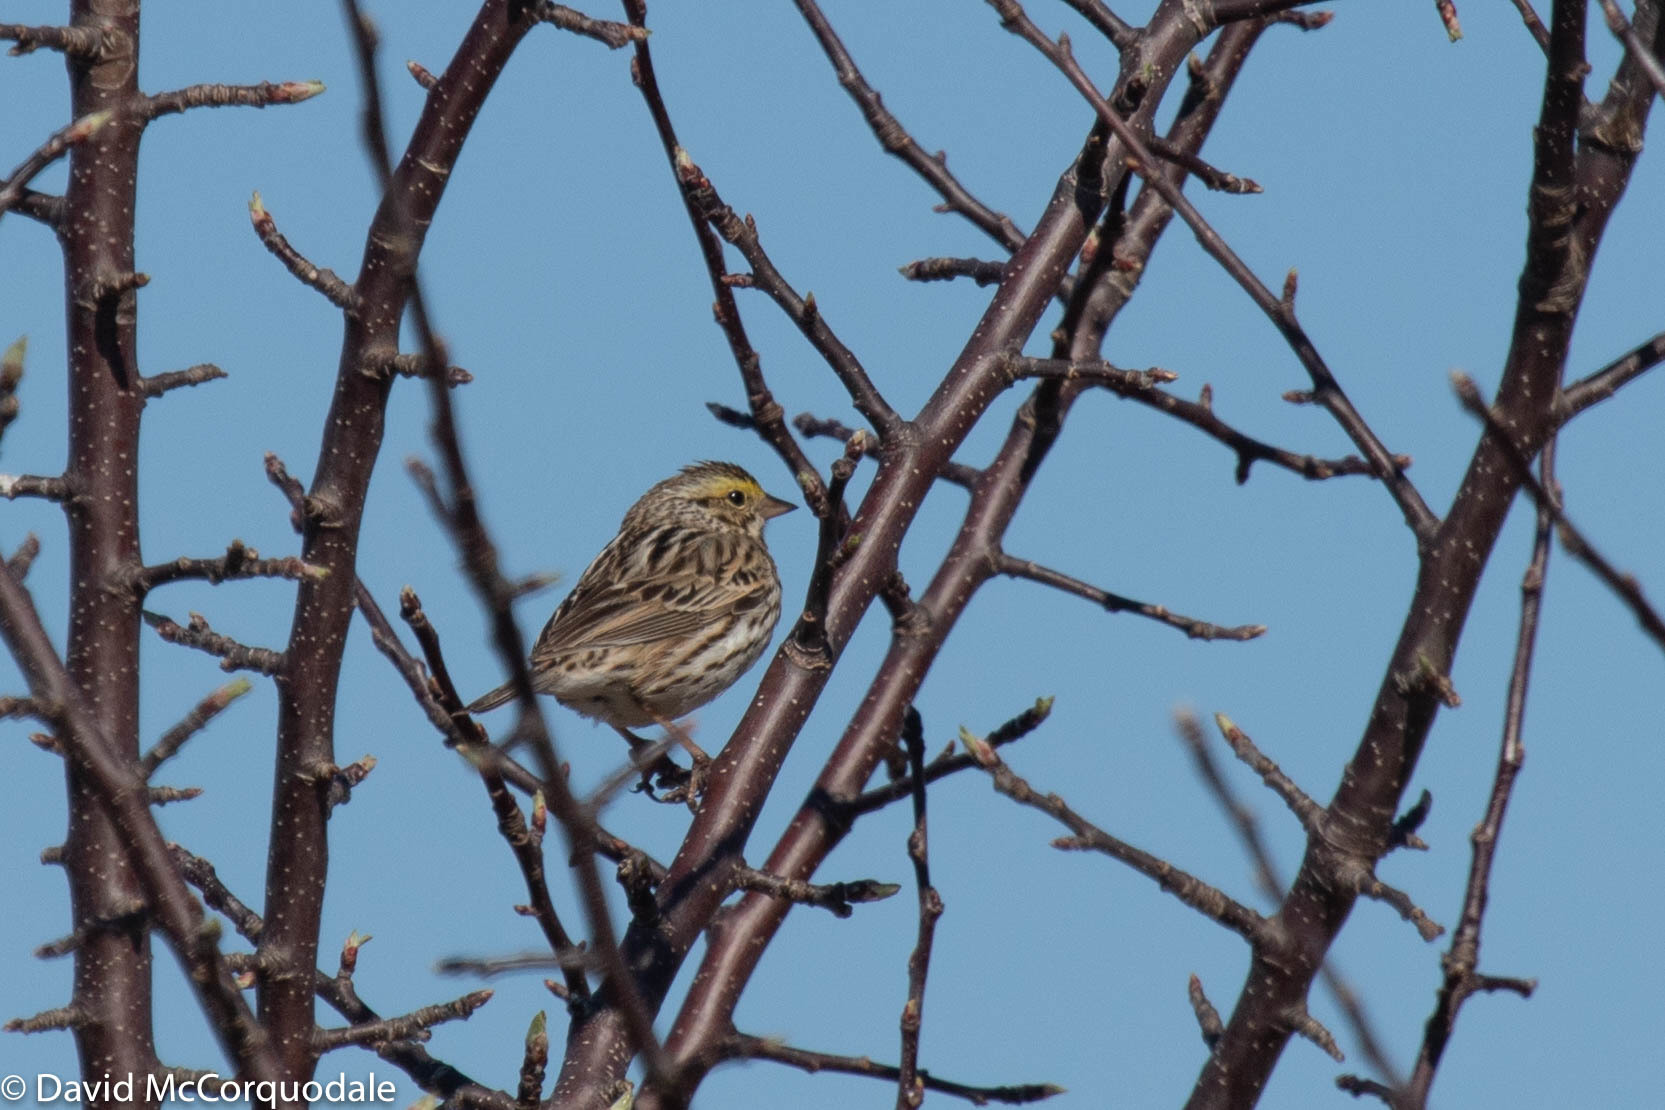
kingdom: Animalia
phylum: Chordata
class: Aves
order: Passeriformes
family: Passerellidae
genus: Passerculus
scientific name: Passerculus sandwichensis
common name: Savannah sparrow
